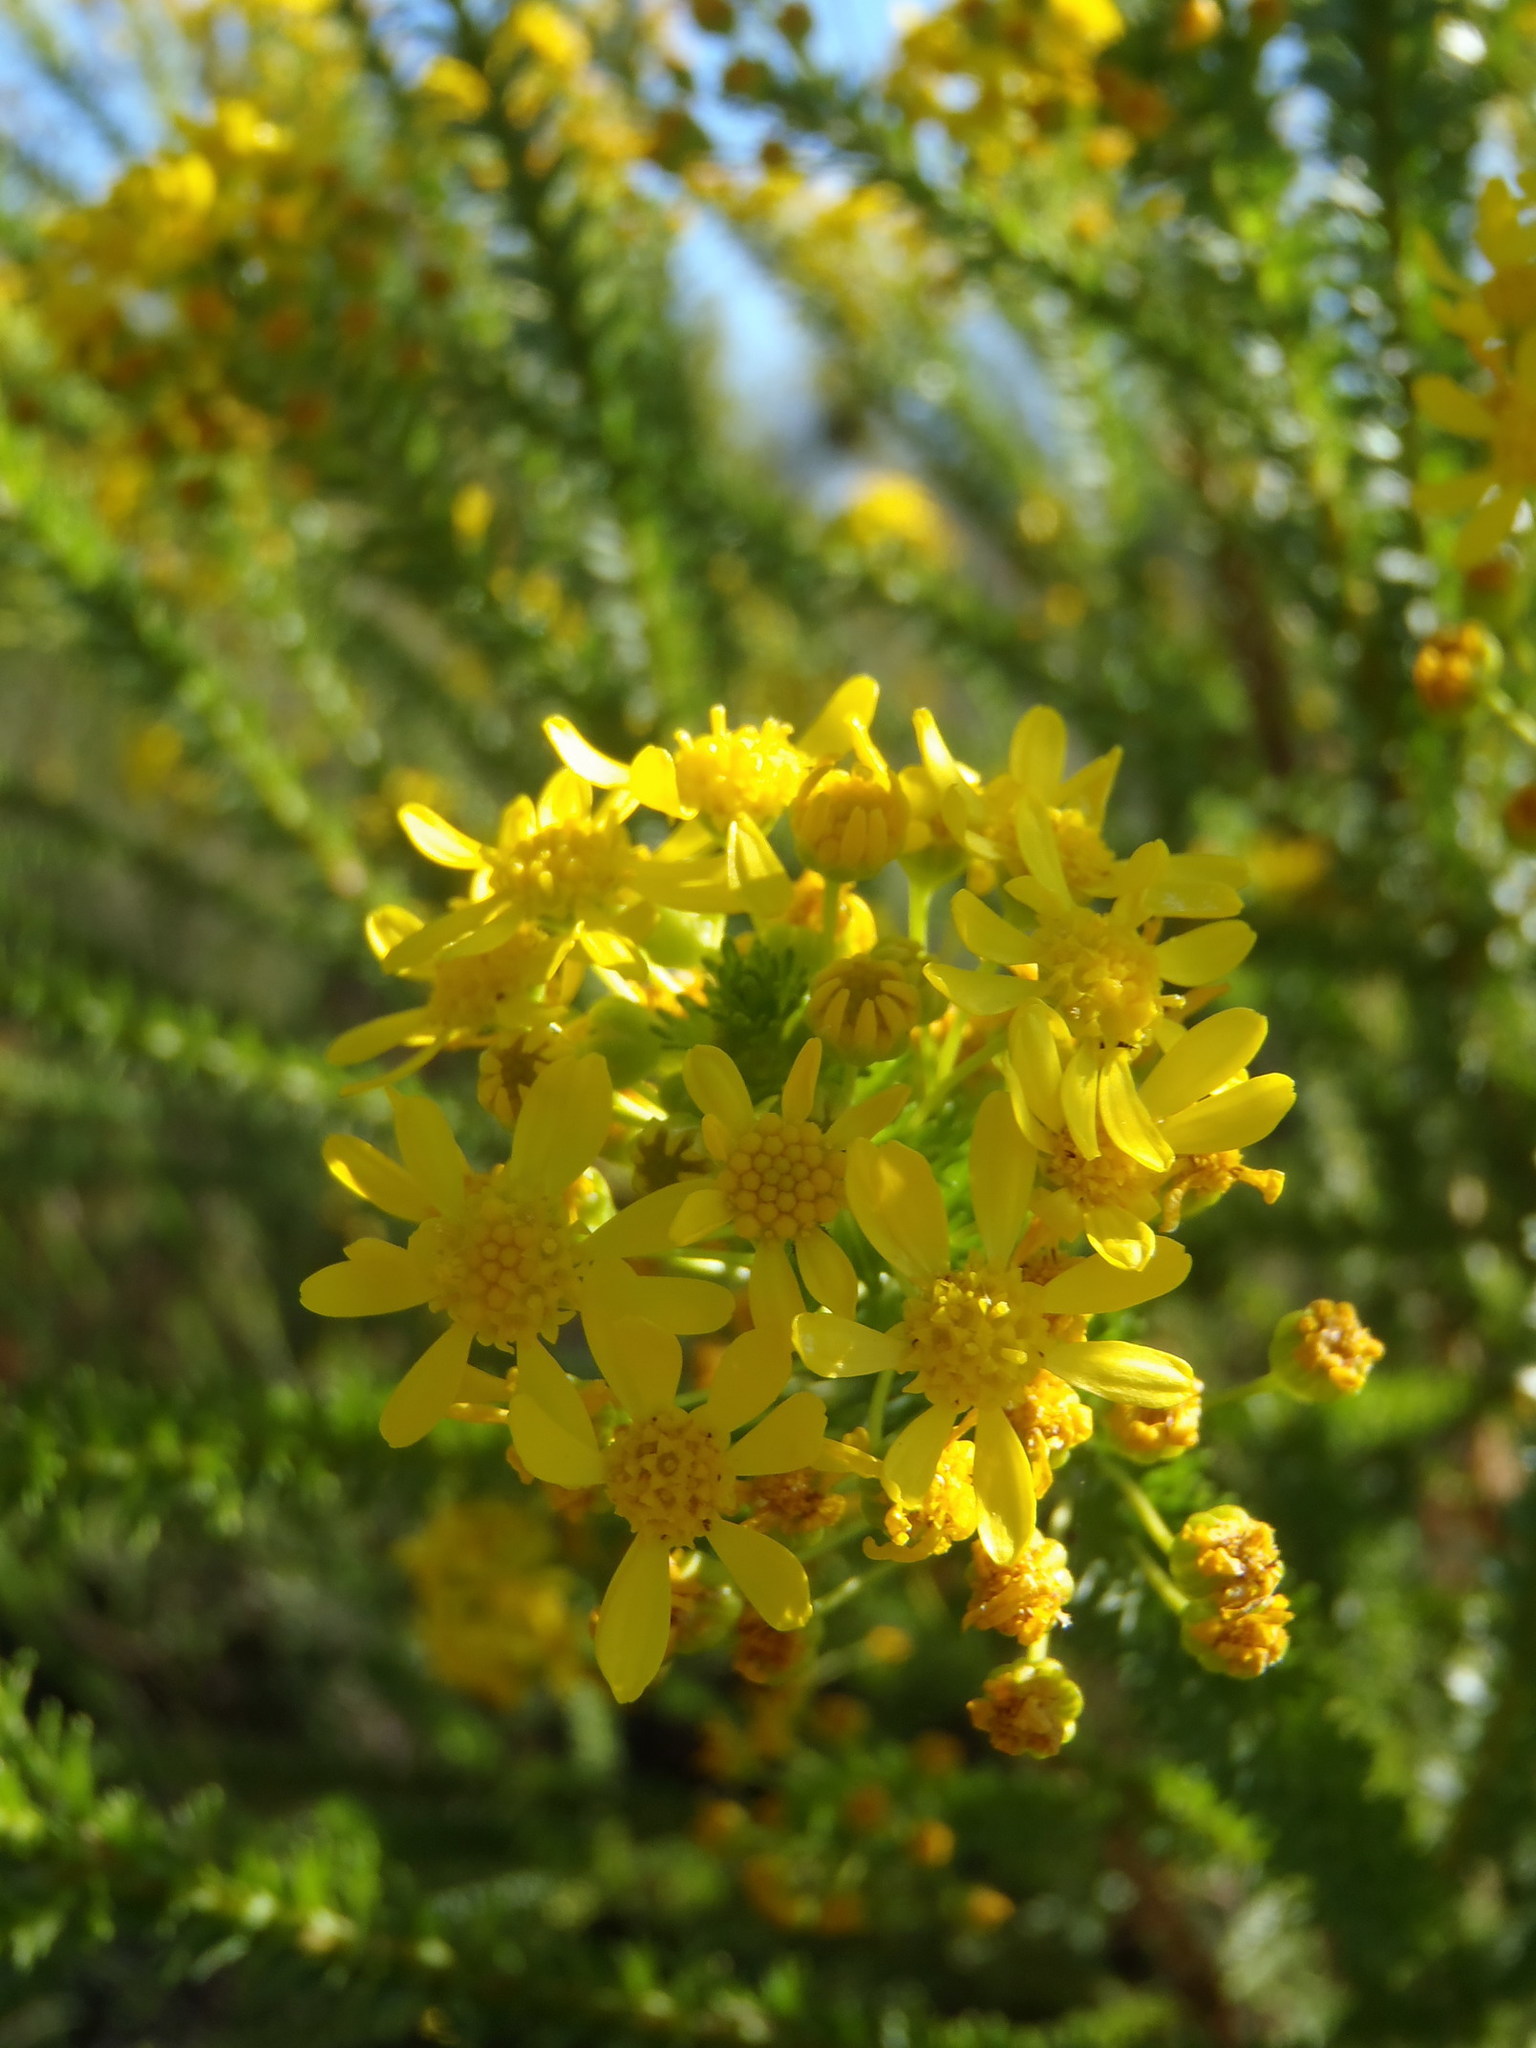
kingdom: Plantae
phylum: Tracheophyta
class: Magnoliopsida
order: Asterales
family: Asteraceae
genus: Euryops
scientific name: Euryops virgineus
